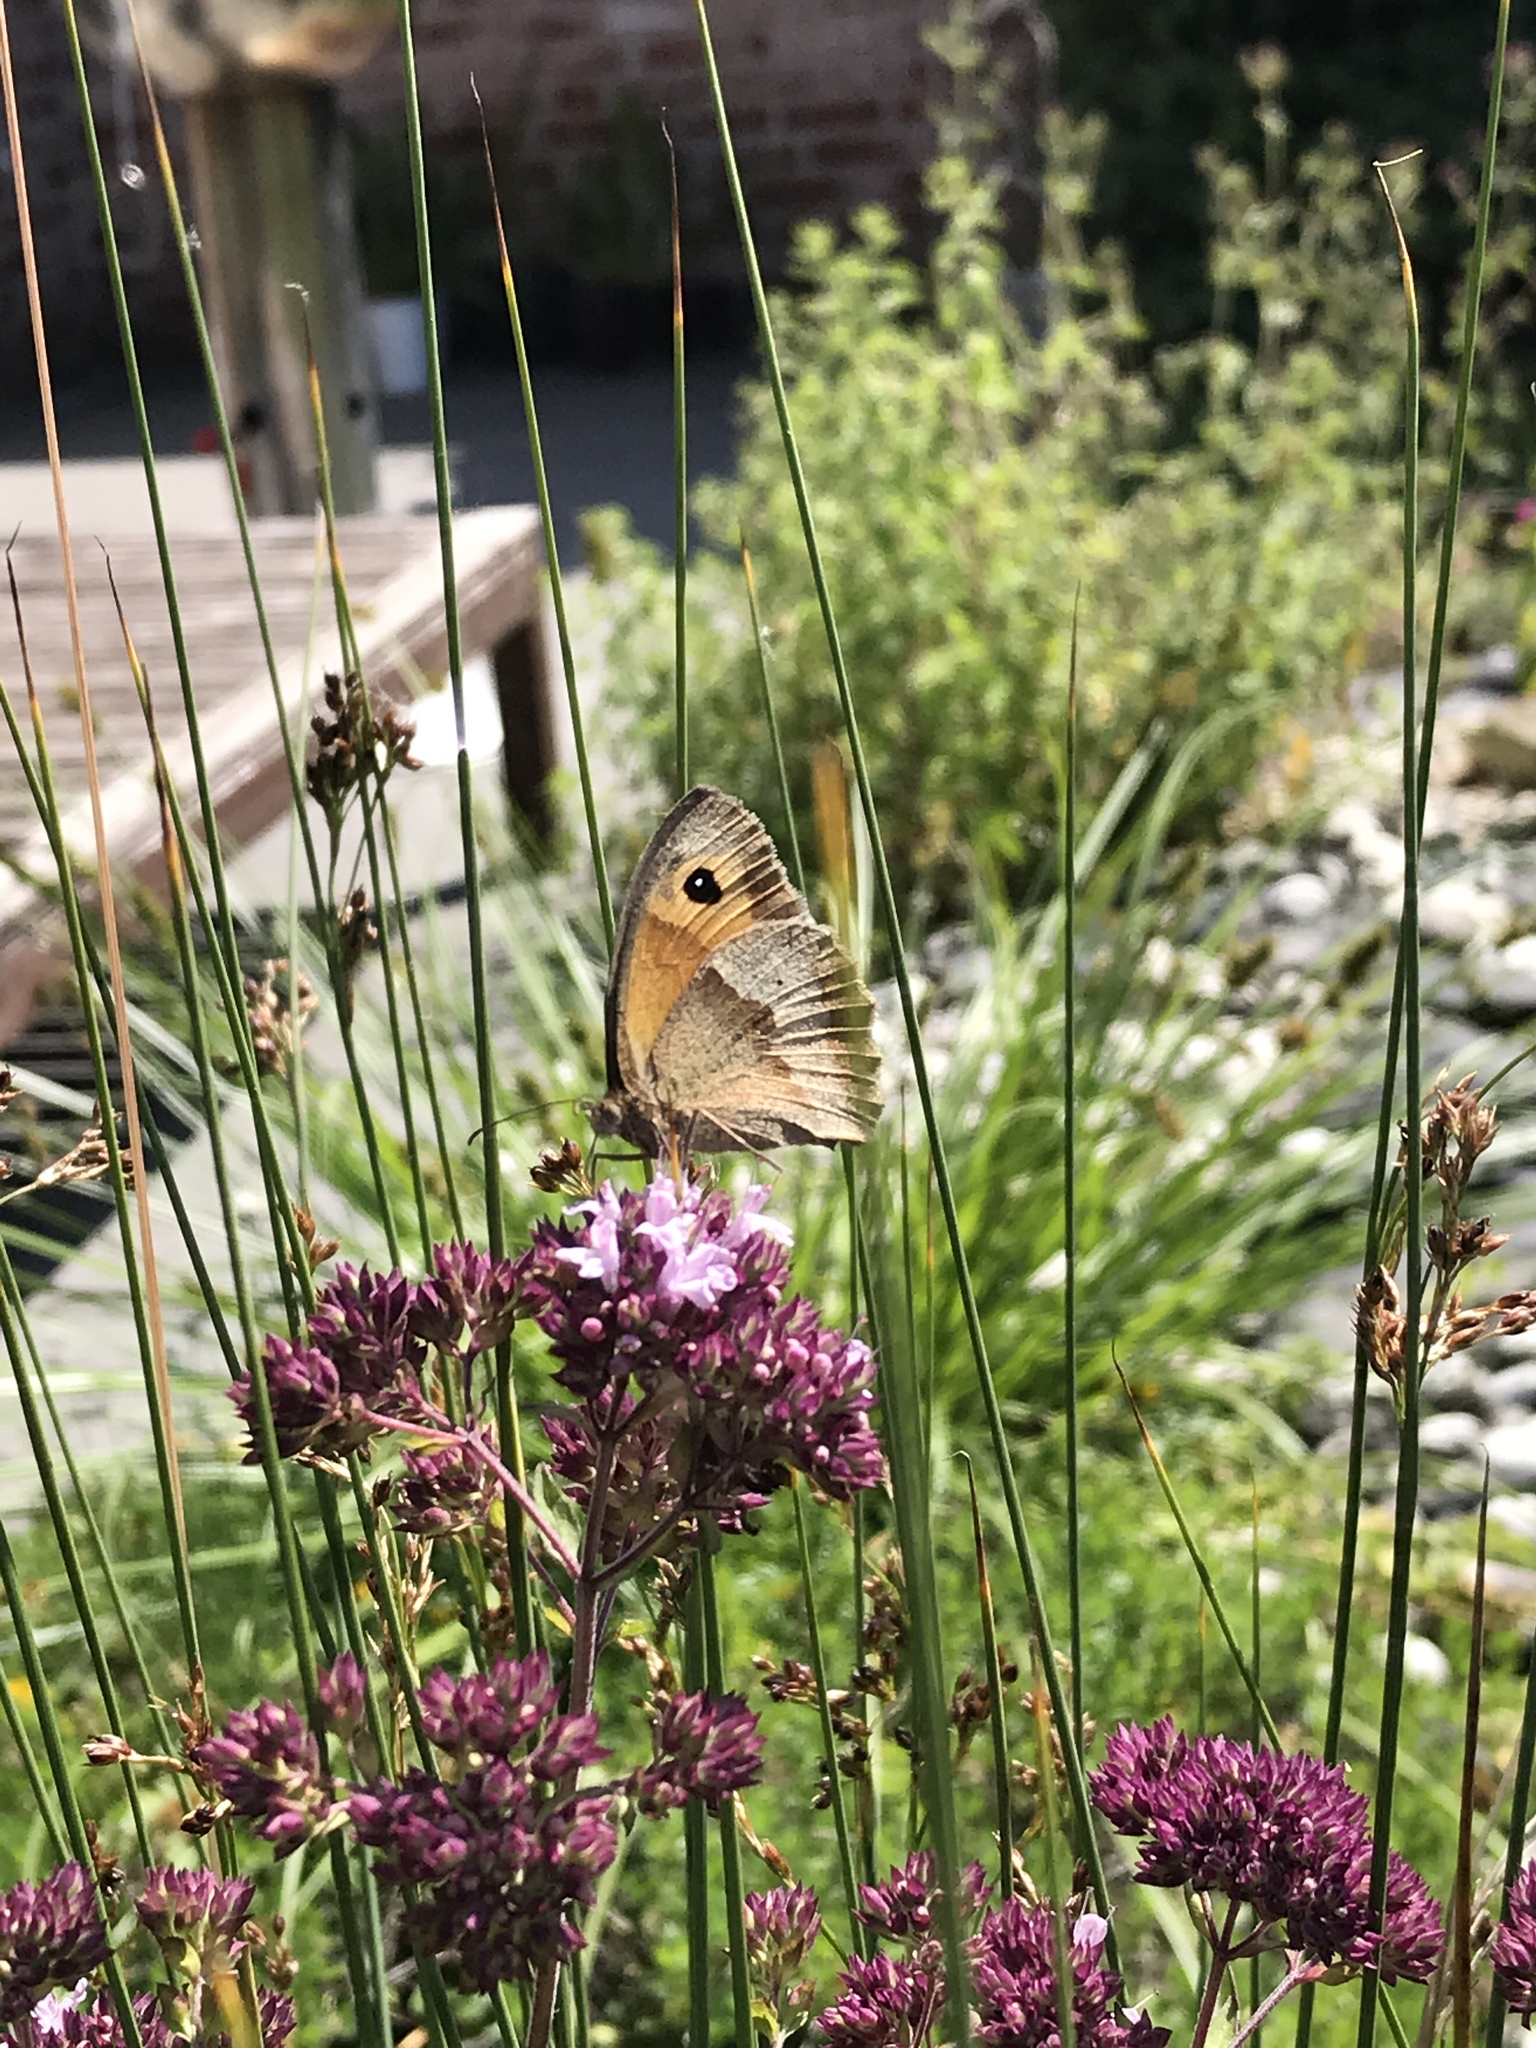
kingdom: Animalia
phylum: Arthropoda
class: Insecta
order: Lepidoptera
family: Nymphalidae
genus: Maniola
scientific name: Maniola jurtina
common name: Meadow brown
